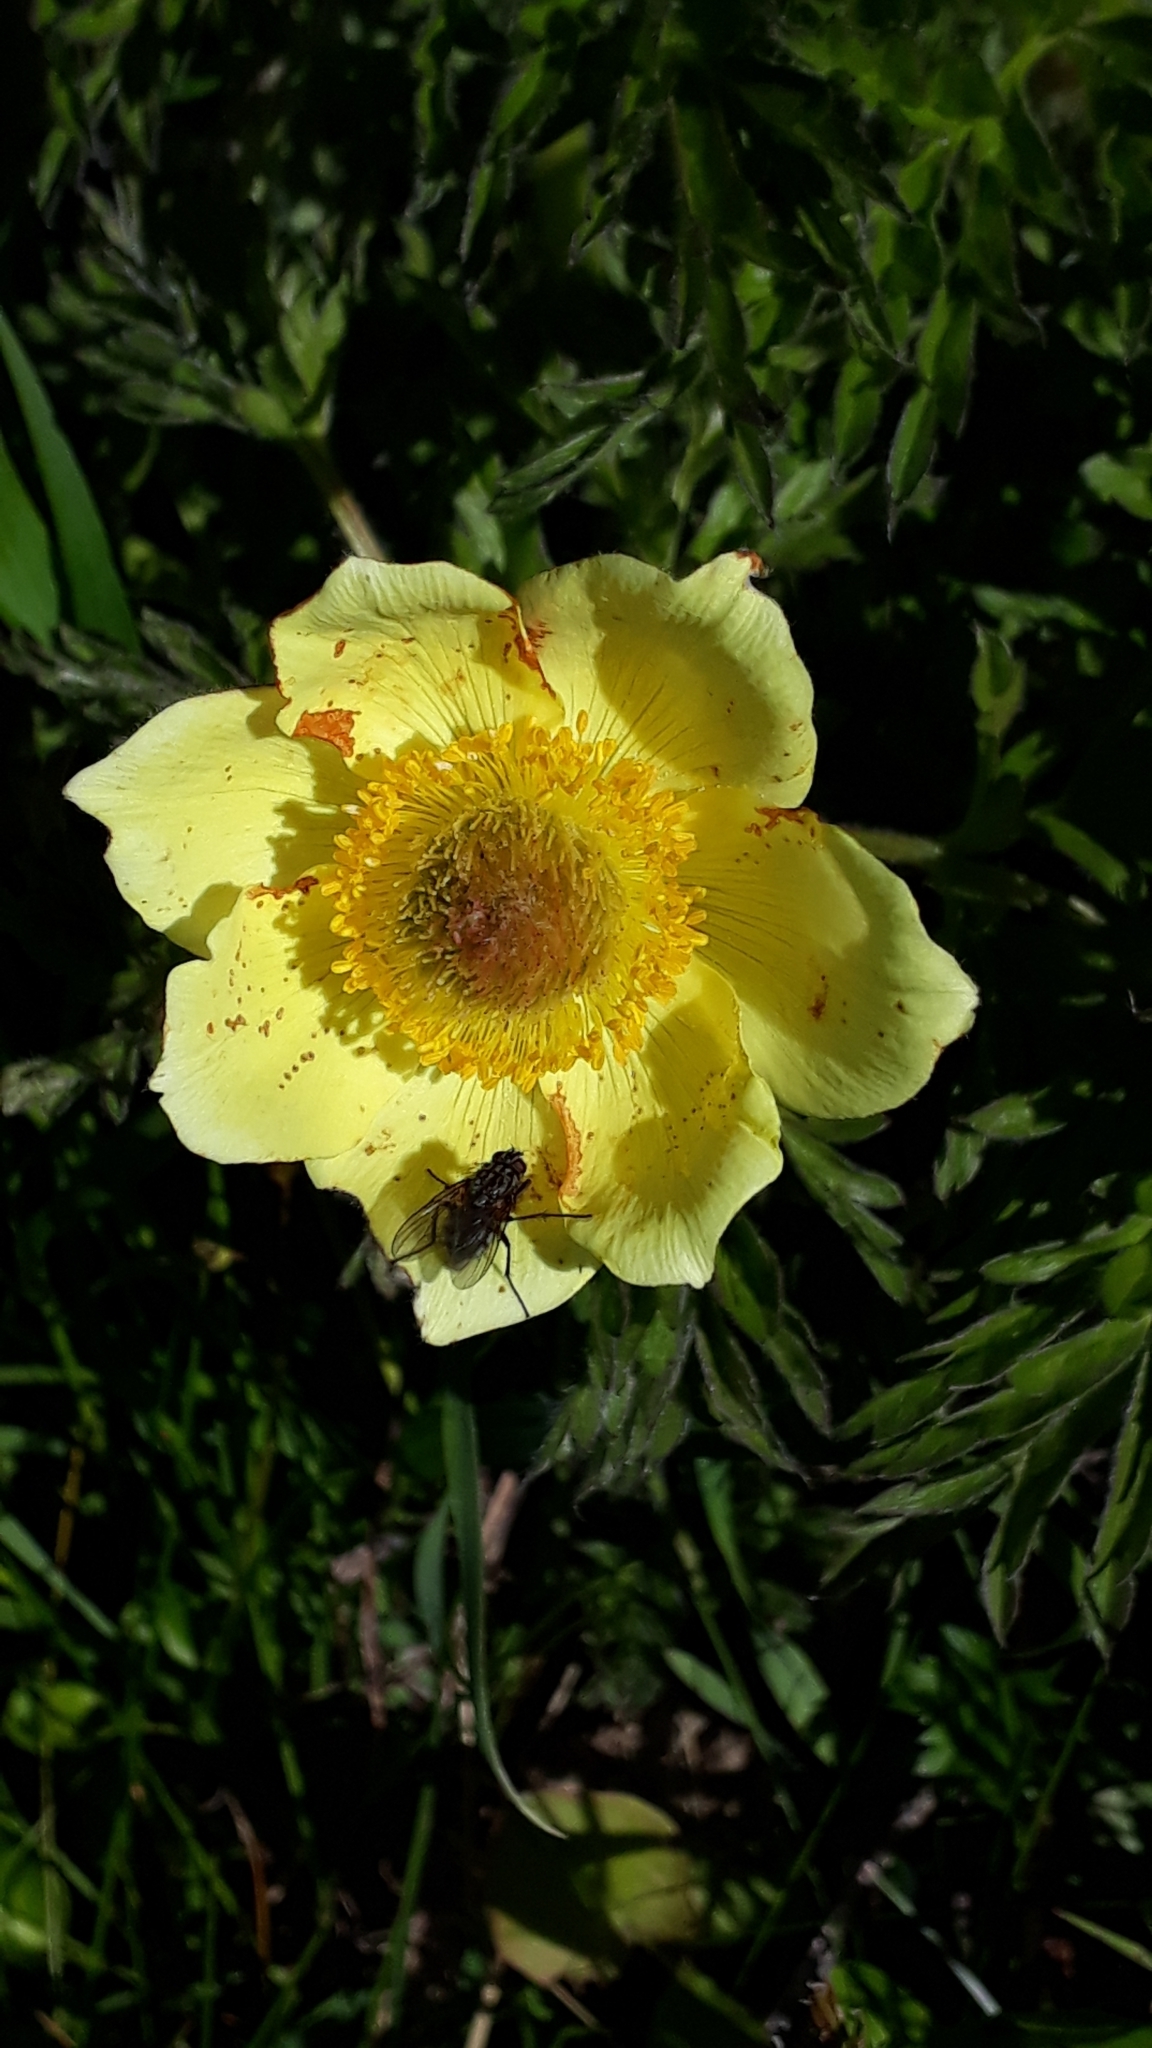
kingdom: Plantae
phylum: Tracheophyta
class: Magnoliopsida
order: Ranunculales
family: Ranunculaceae
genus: Pulsatilla
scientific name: Pulsatilla alpina
